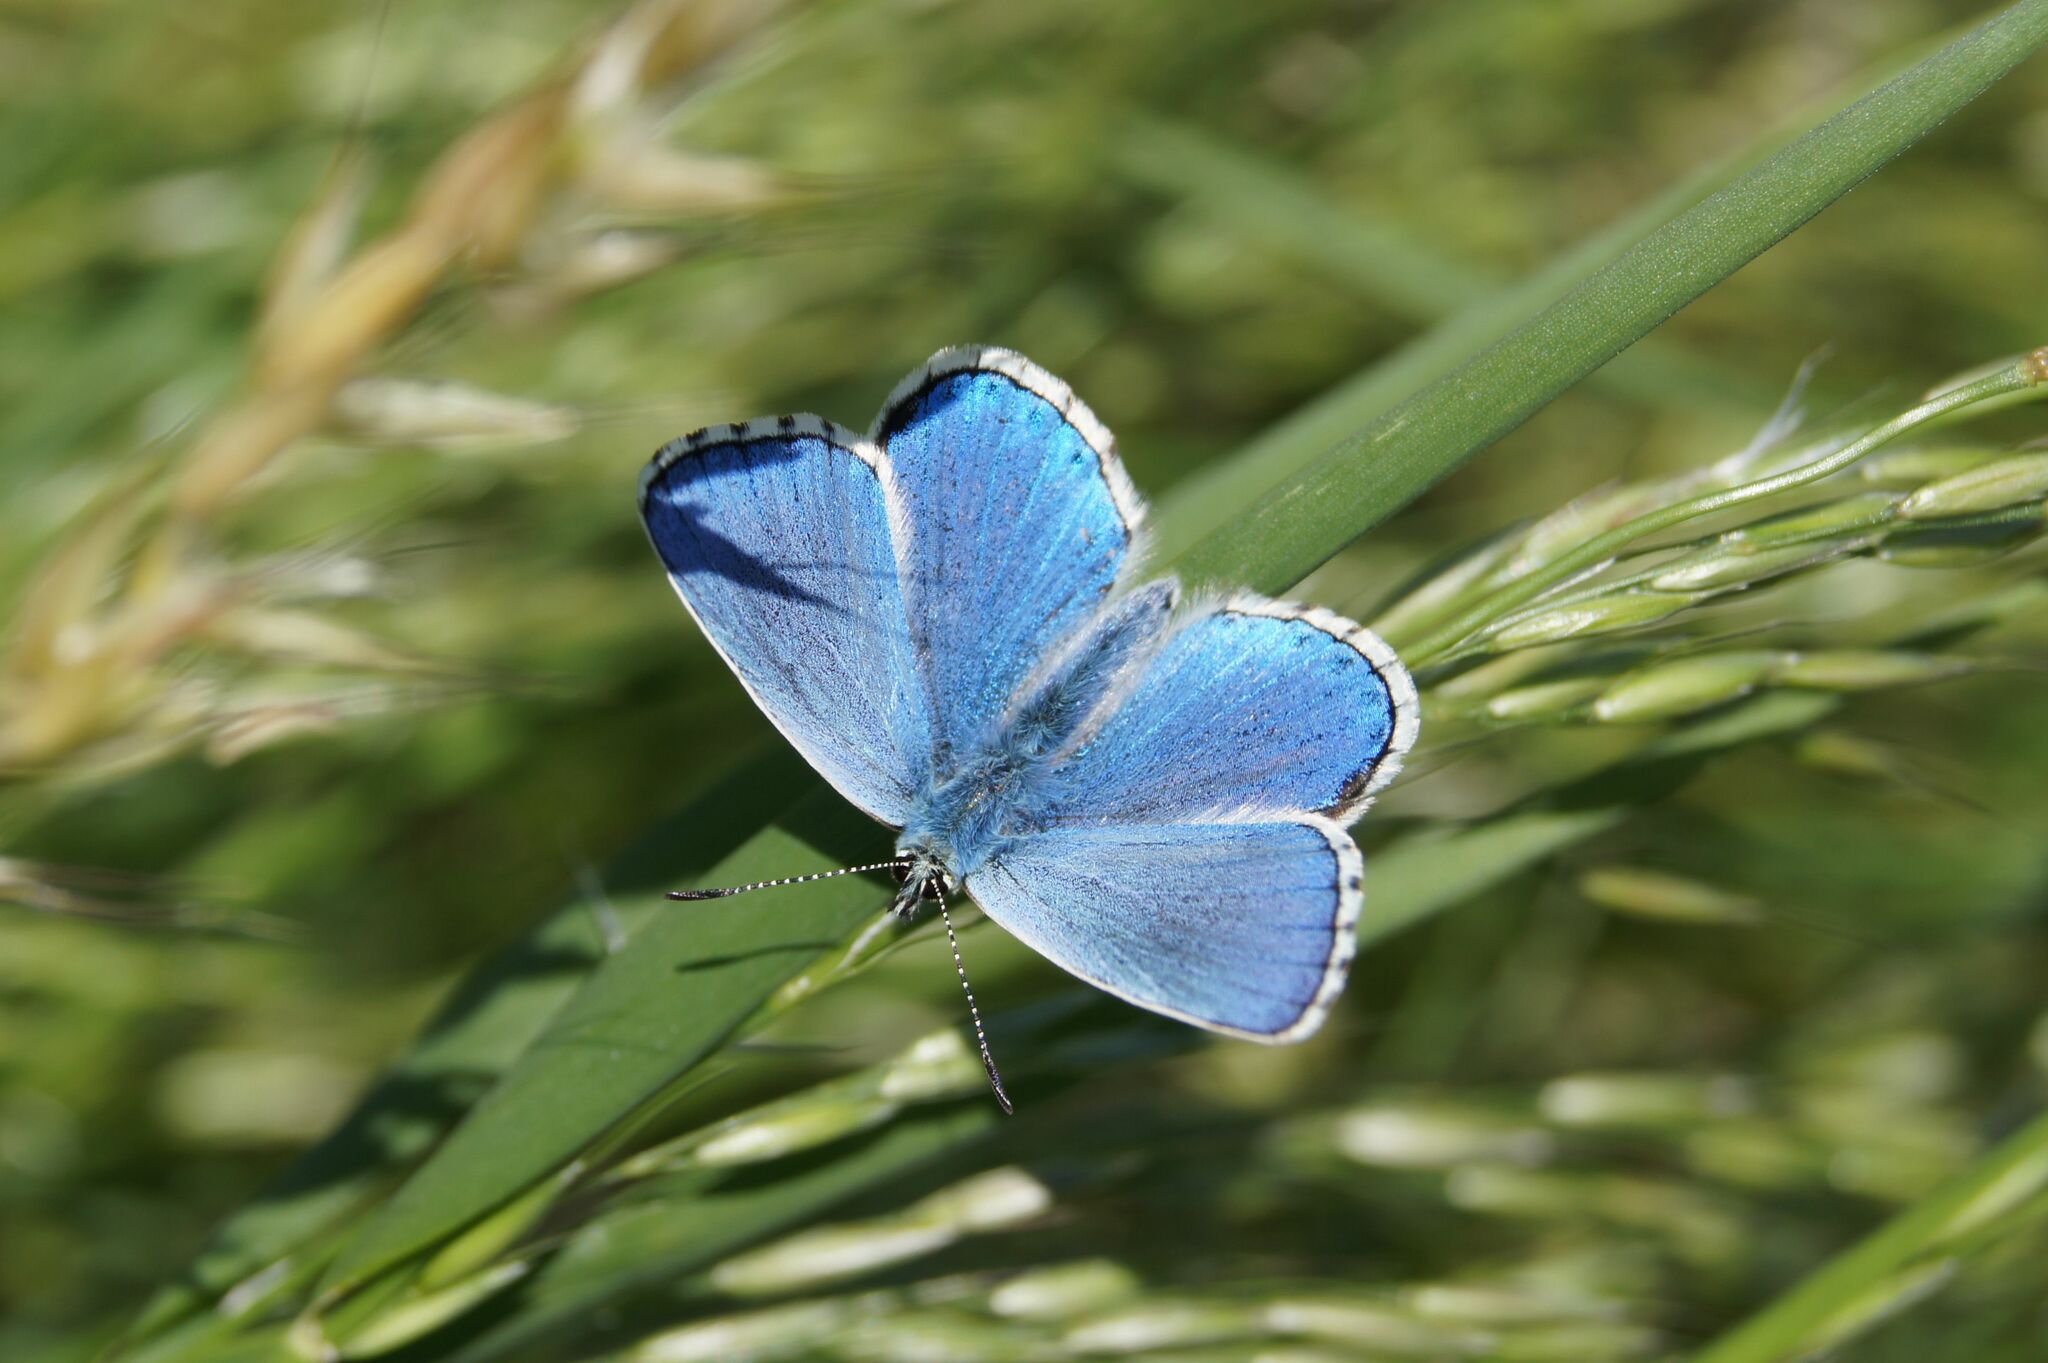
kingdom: Animalia
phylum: Arthropoda
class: Insecta
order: Lepidoptera
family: Lycaenidae
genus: Lysandra
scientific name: Lysandra bellargus
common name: Adonis blue
